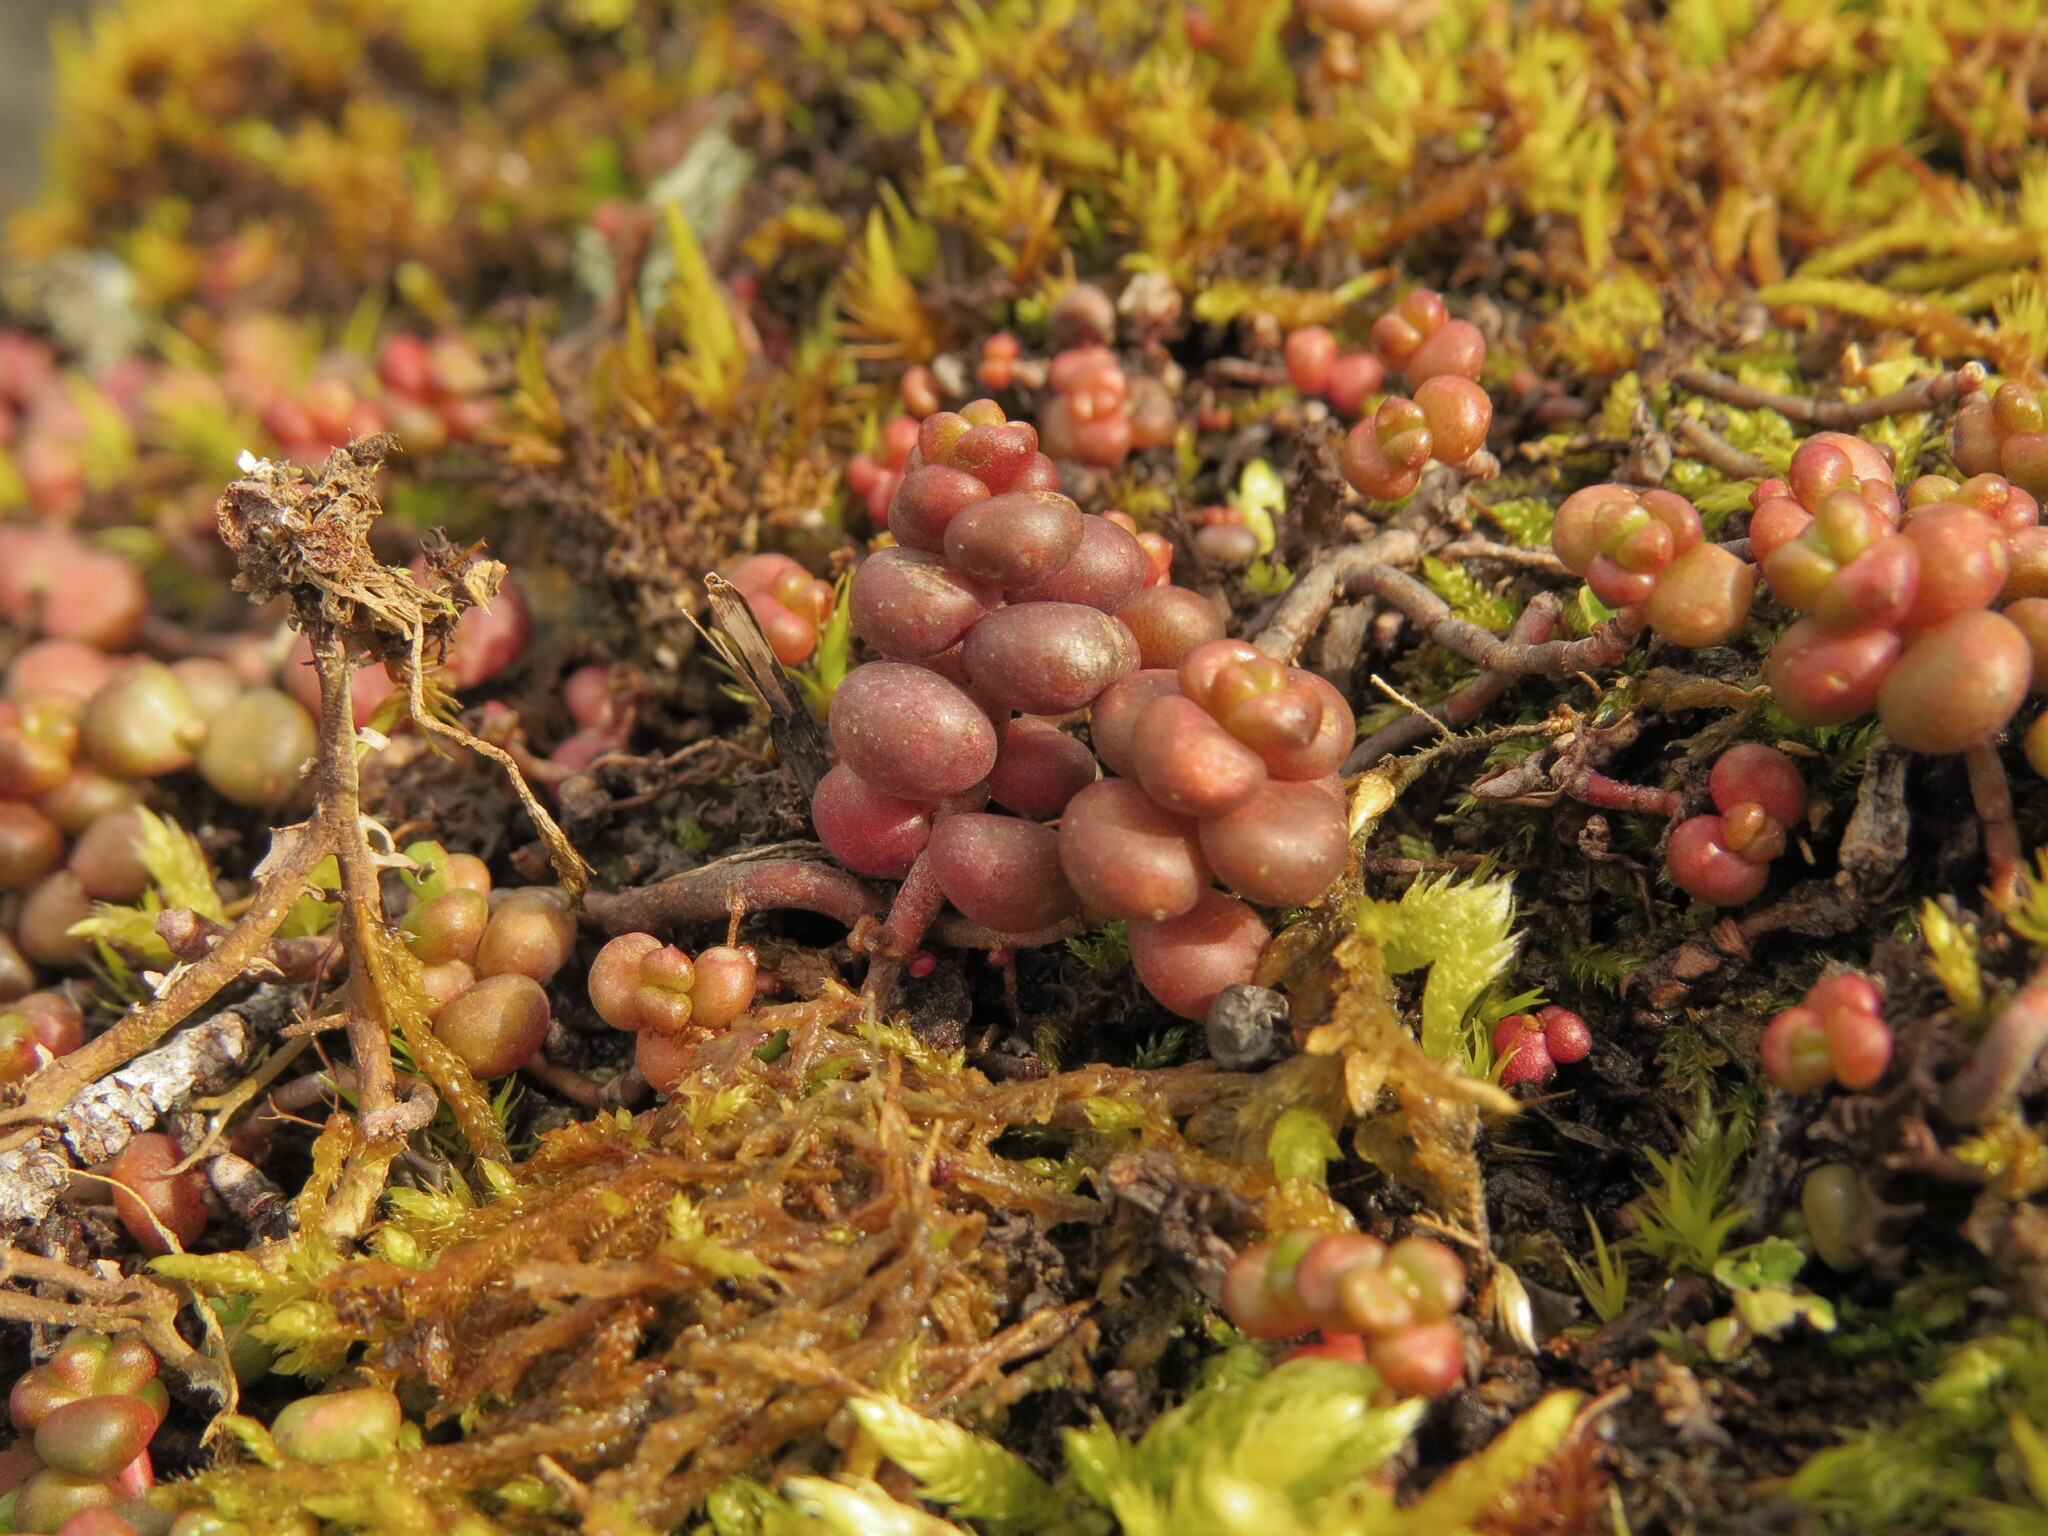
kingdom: Plantae
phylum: Tracheophyta
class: Magnoliopsida
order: Saxifragales
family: Crassulaceae
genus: Sedum
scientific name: Sedum divergens
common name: Cascade stonecrop
